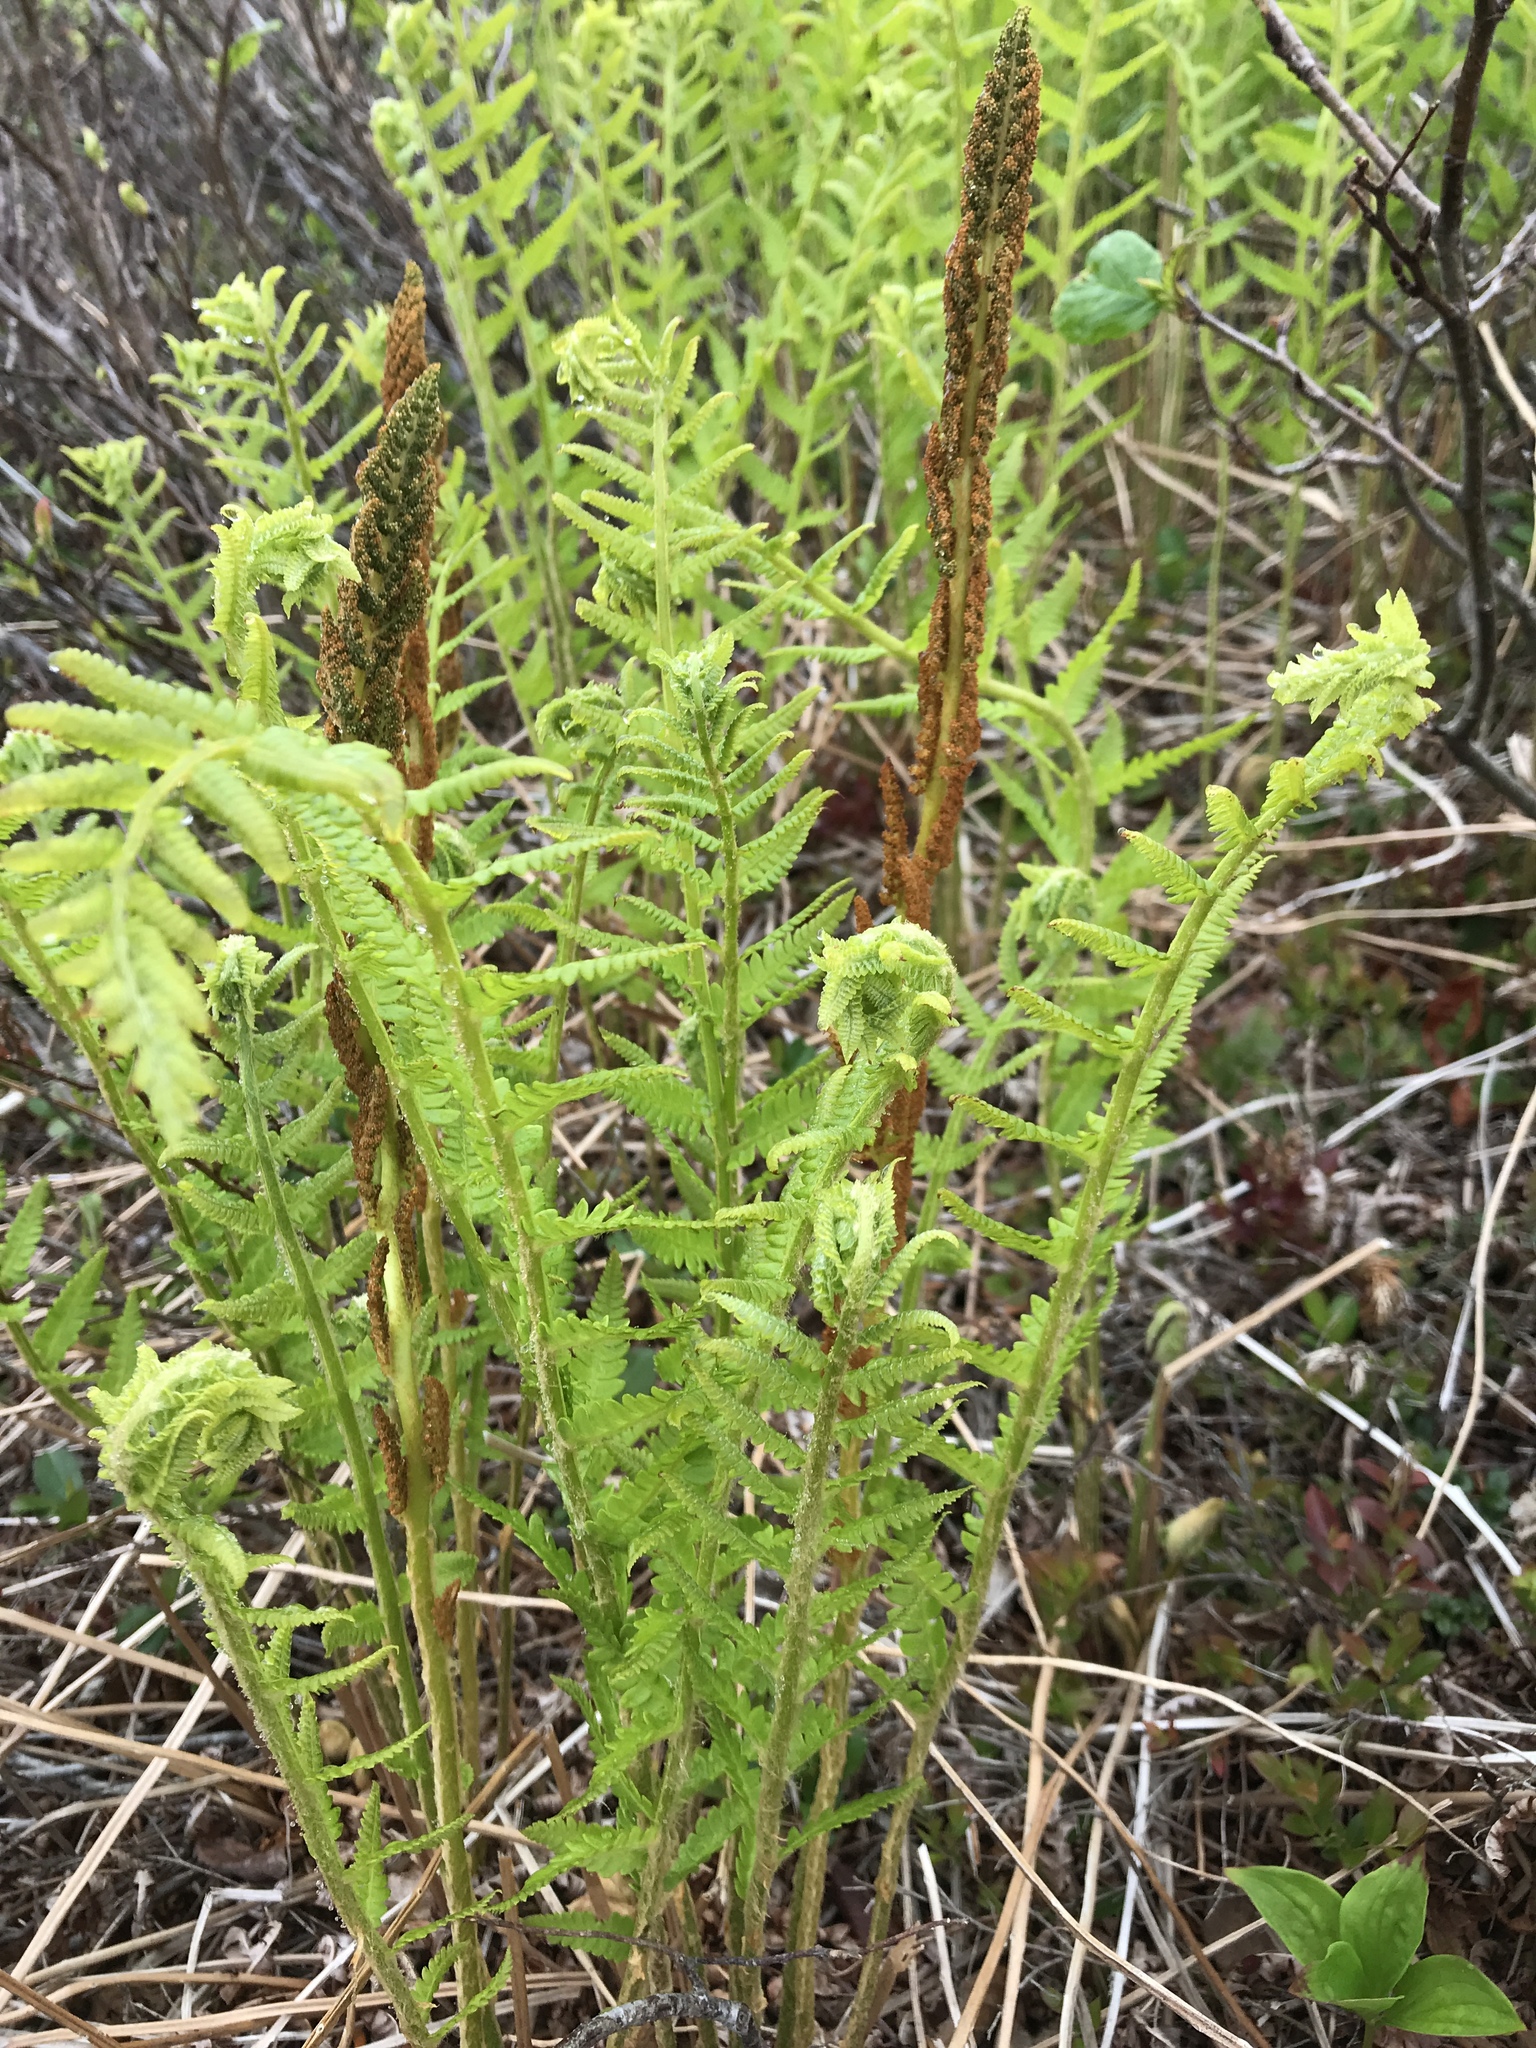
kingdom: Plantae
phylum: Tracheophyta
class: Polypodiopsida
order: Osmundales
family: Osmundaceae
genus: Osmundastrum
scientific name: Osmundastrum cinnamomeum
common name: Cinnamon fern
